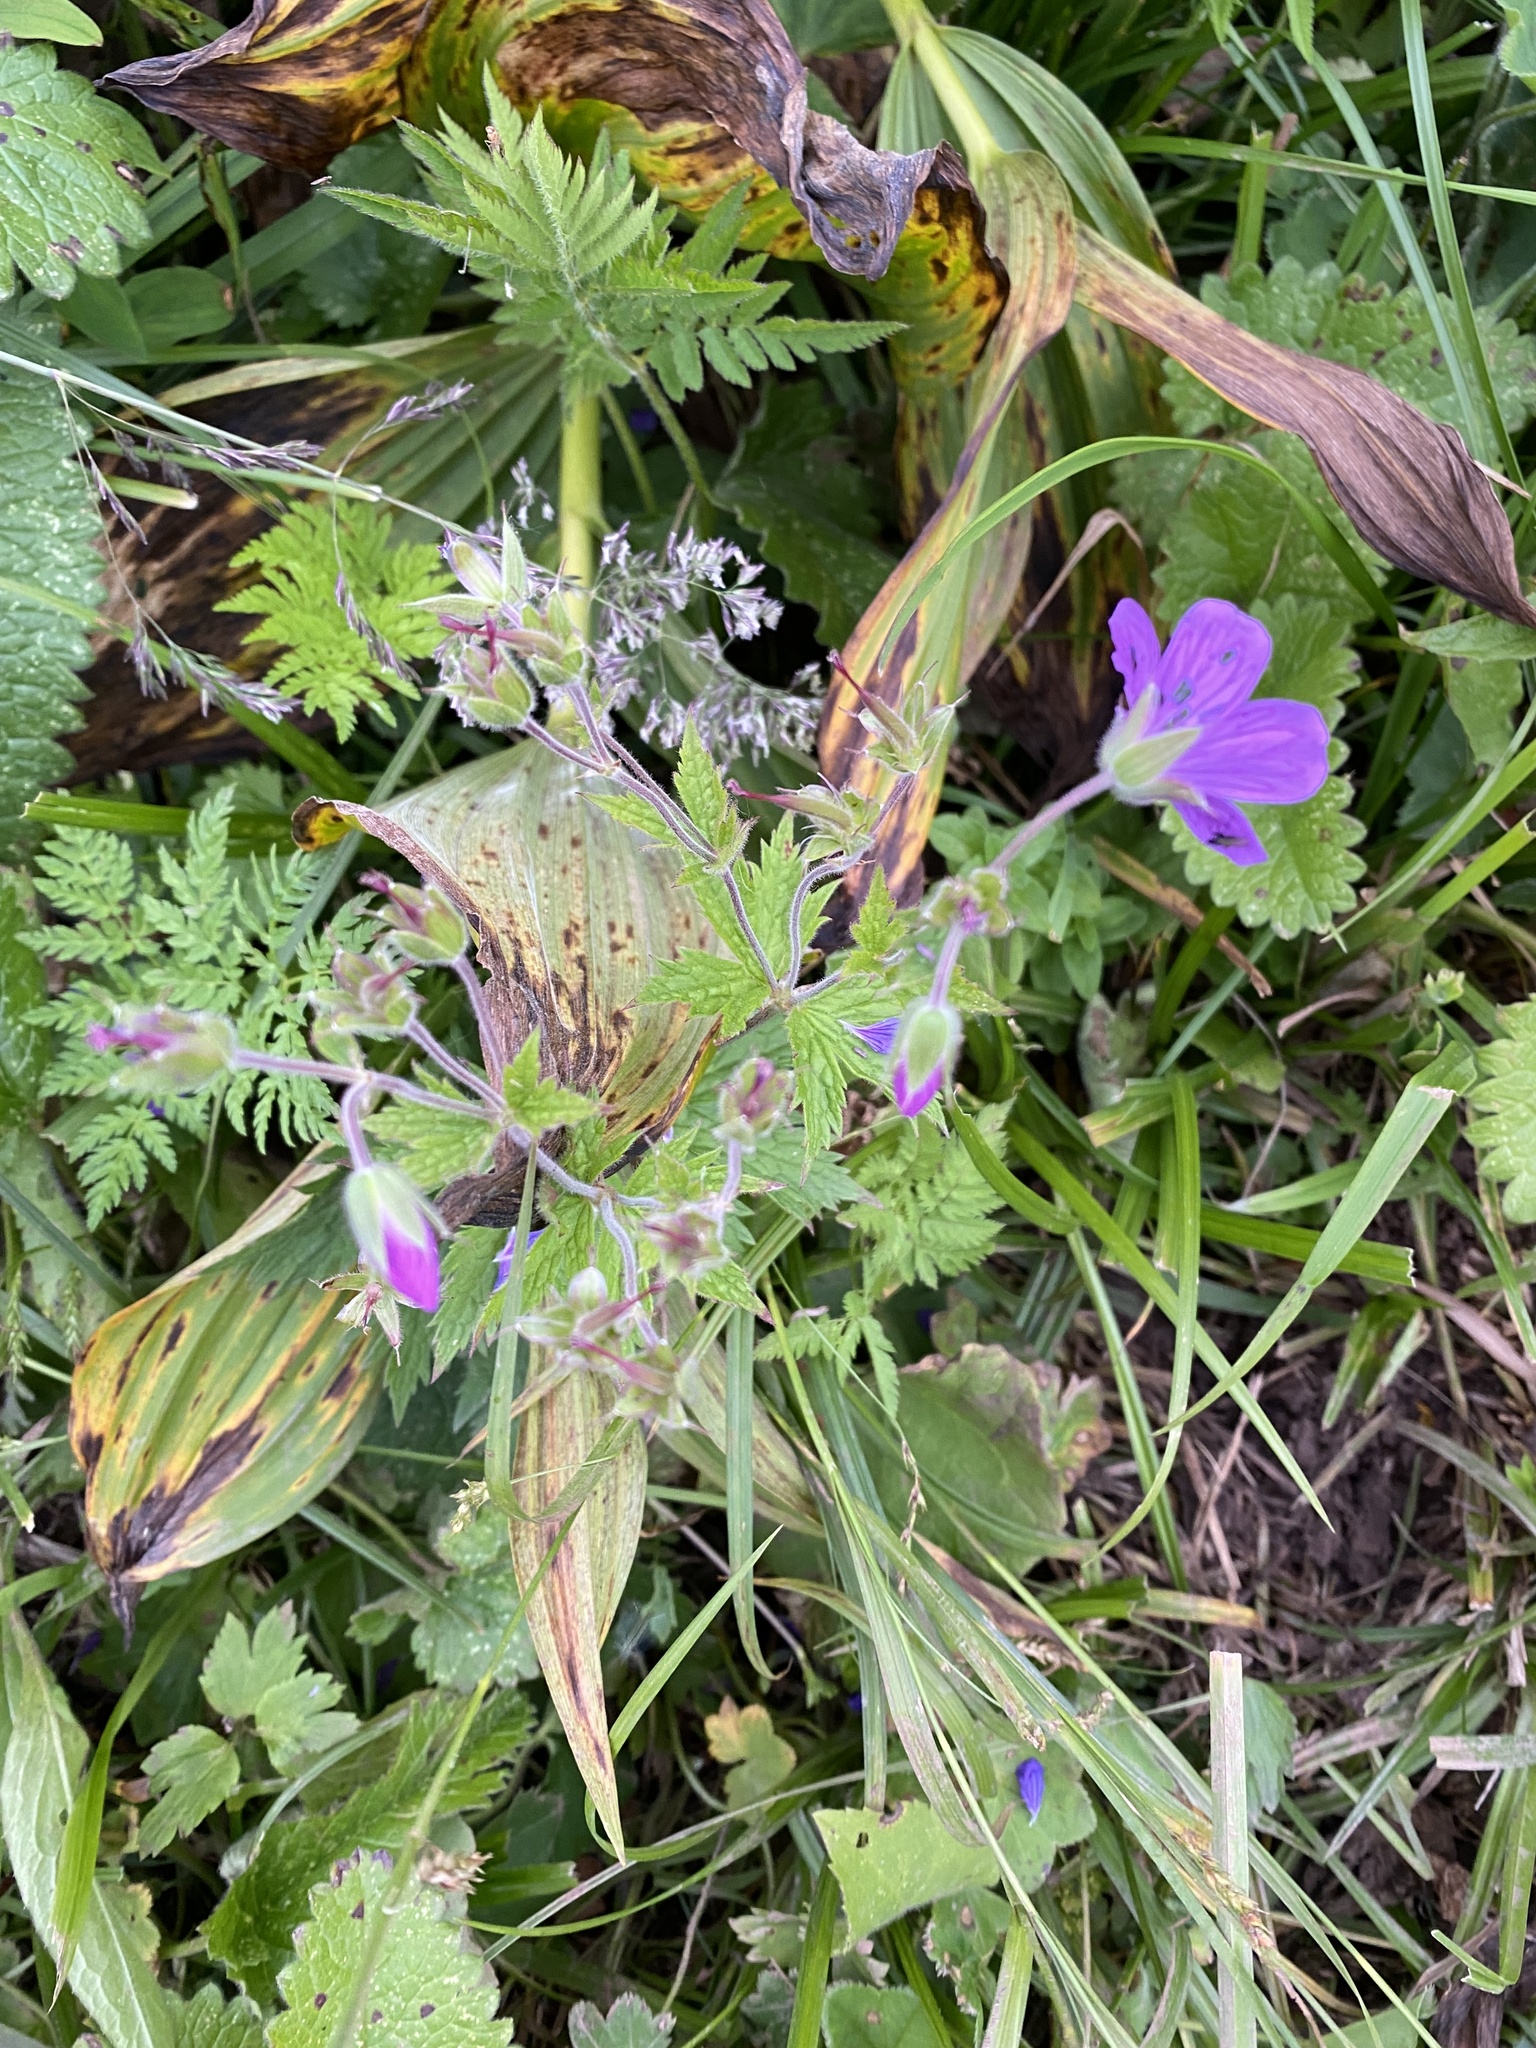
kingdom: Plantae
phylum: Tracheophyta
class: Magnoliopsida
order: Geraniales
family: Geraniaceae
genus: Geranium
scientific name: Geranium sylvaticum
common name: Wood crane's-bill
